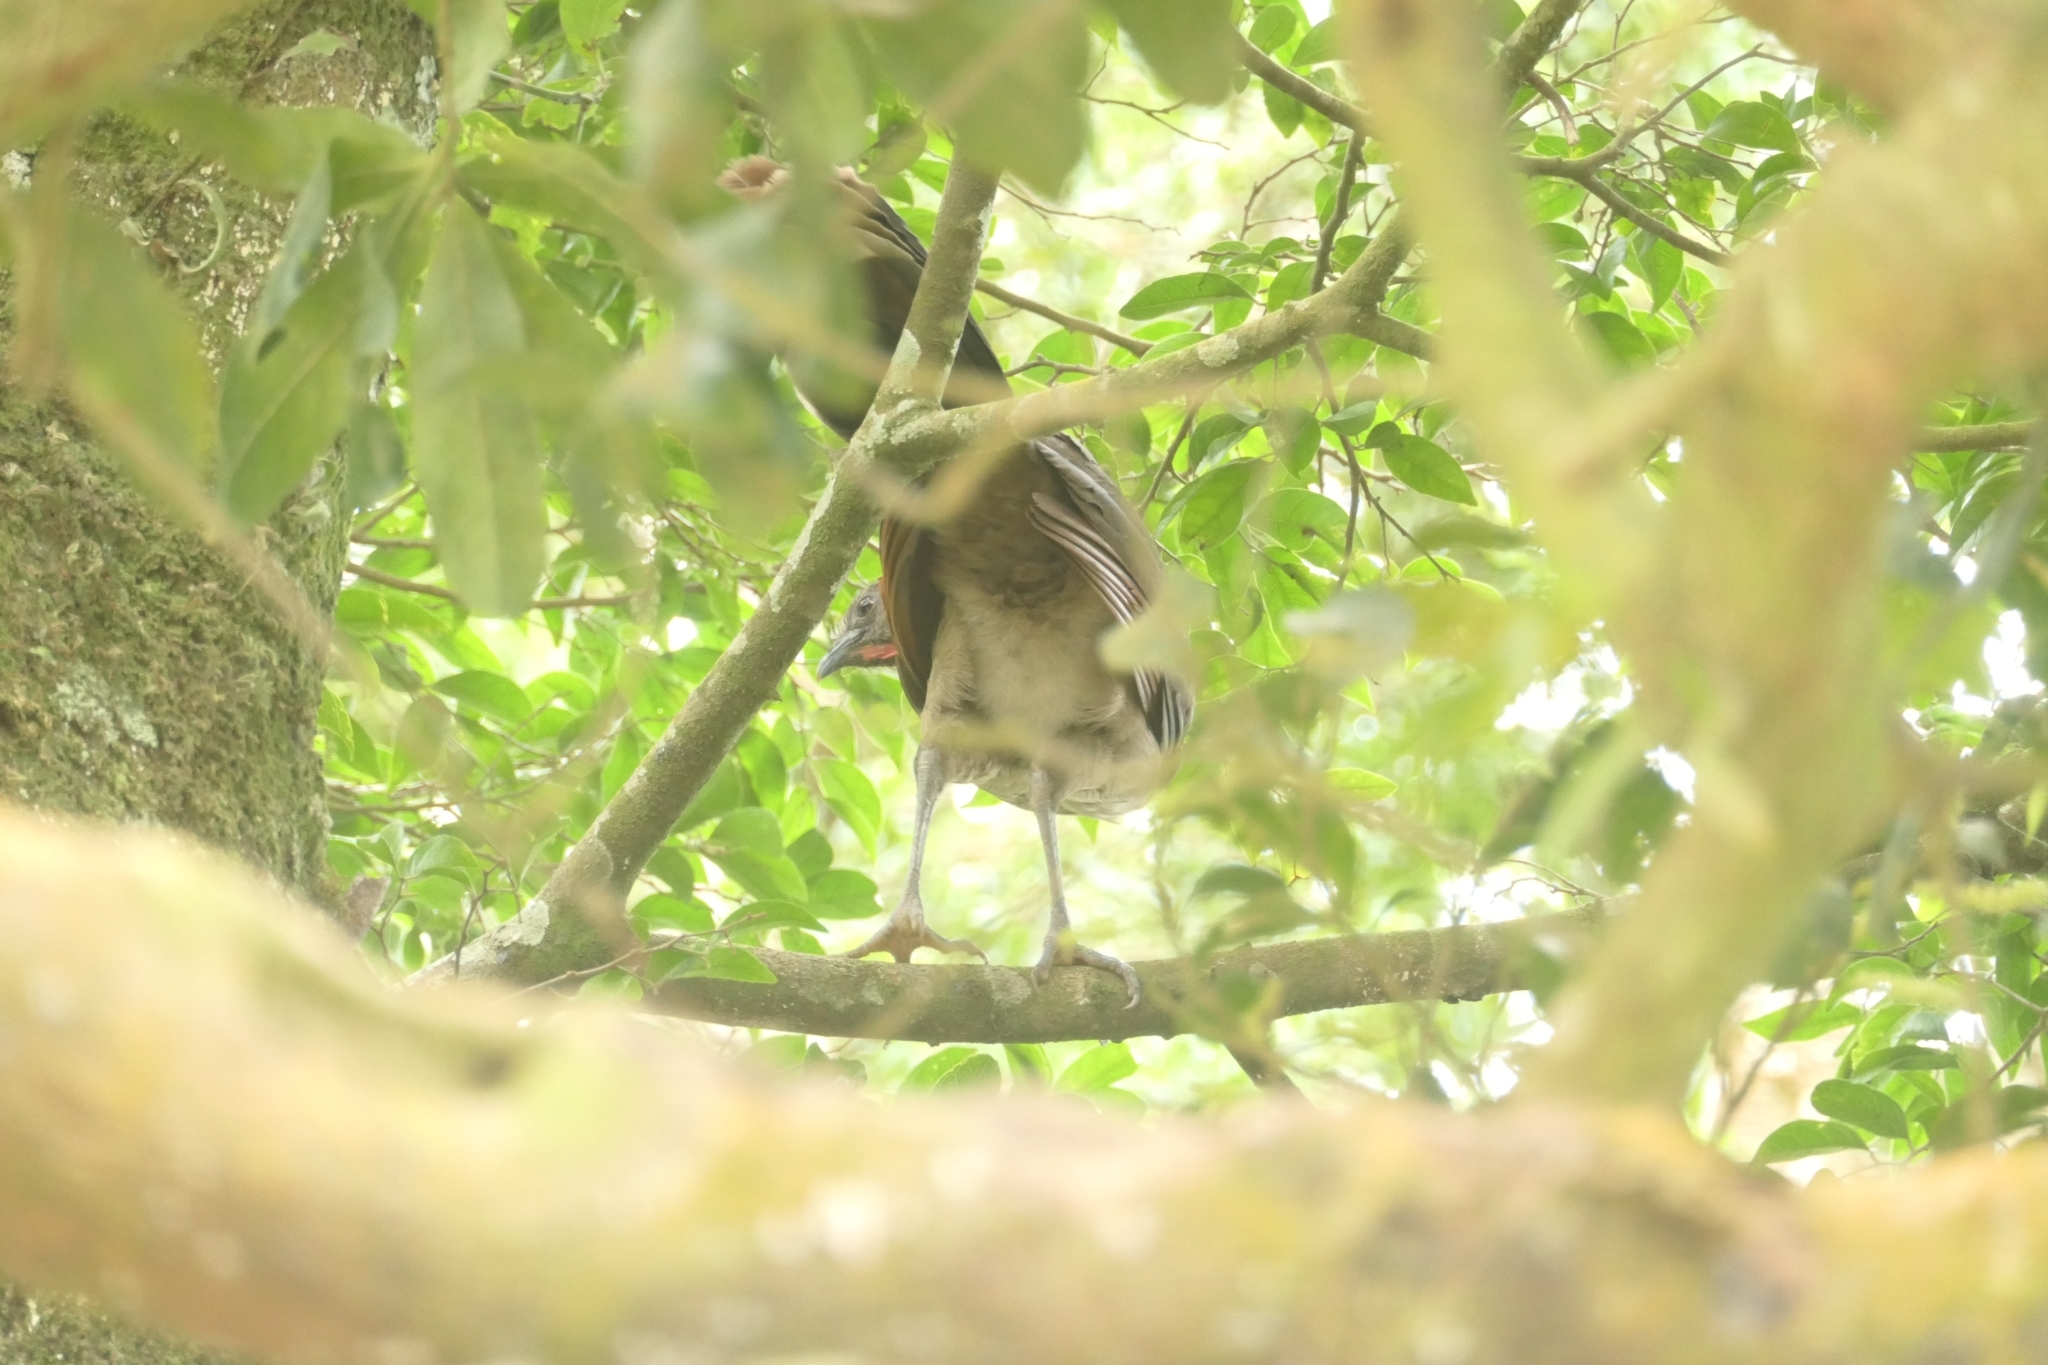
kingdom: Animalia
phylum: Chordata
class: Aves
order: Galliformes
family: Cracidae
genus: Ortalis
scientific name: Ortalis cinereiceps
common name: Grey-headed chachalaca
